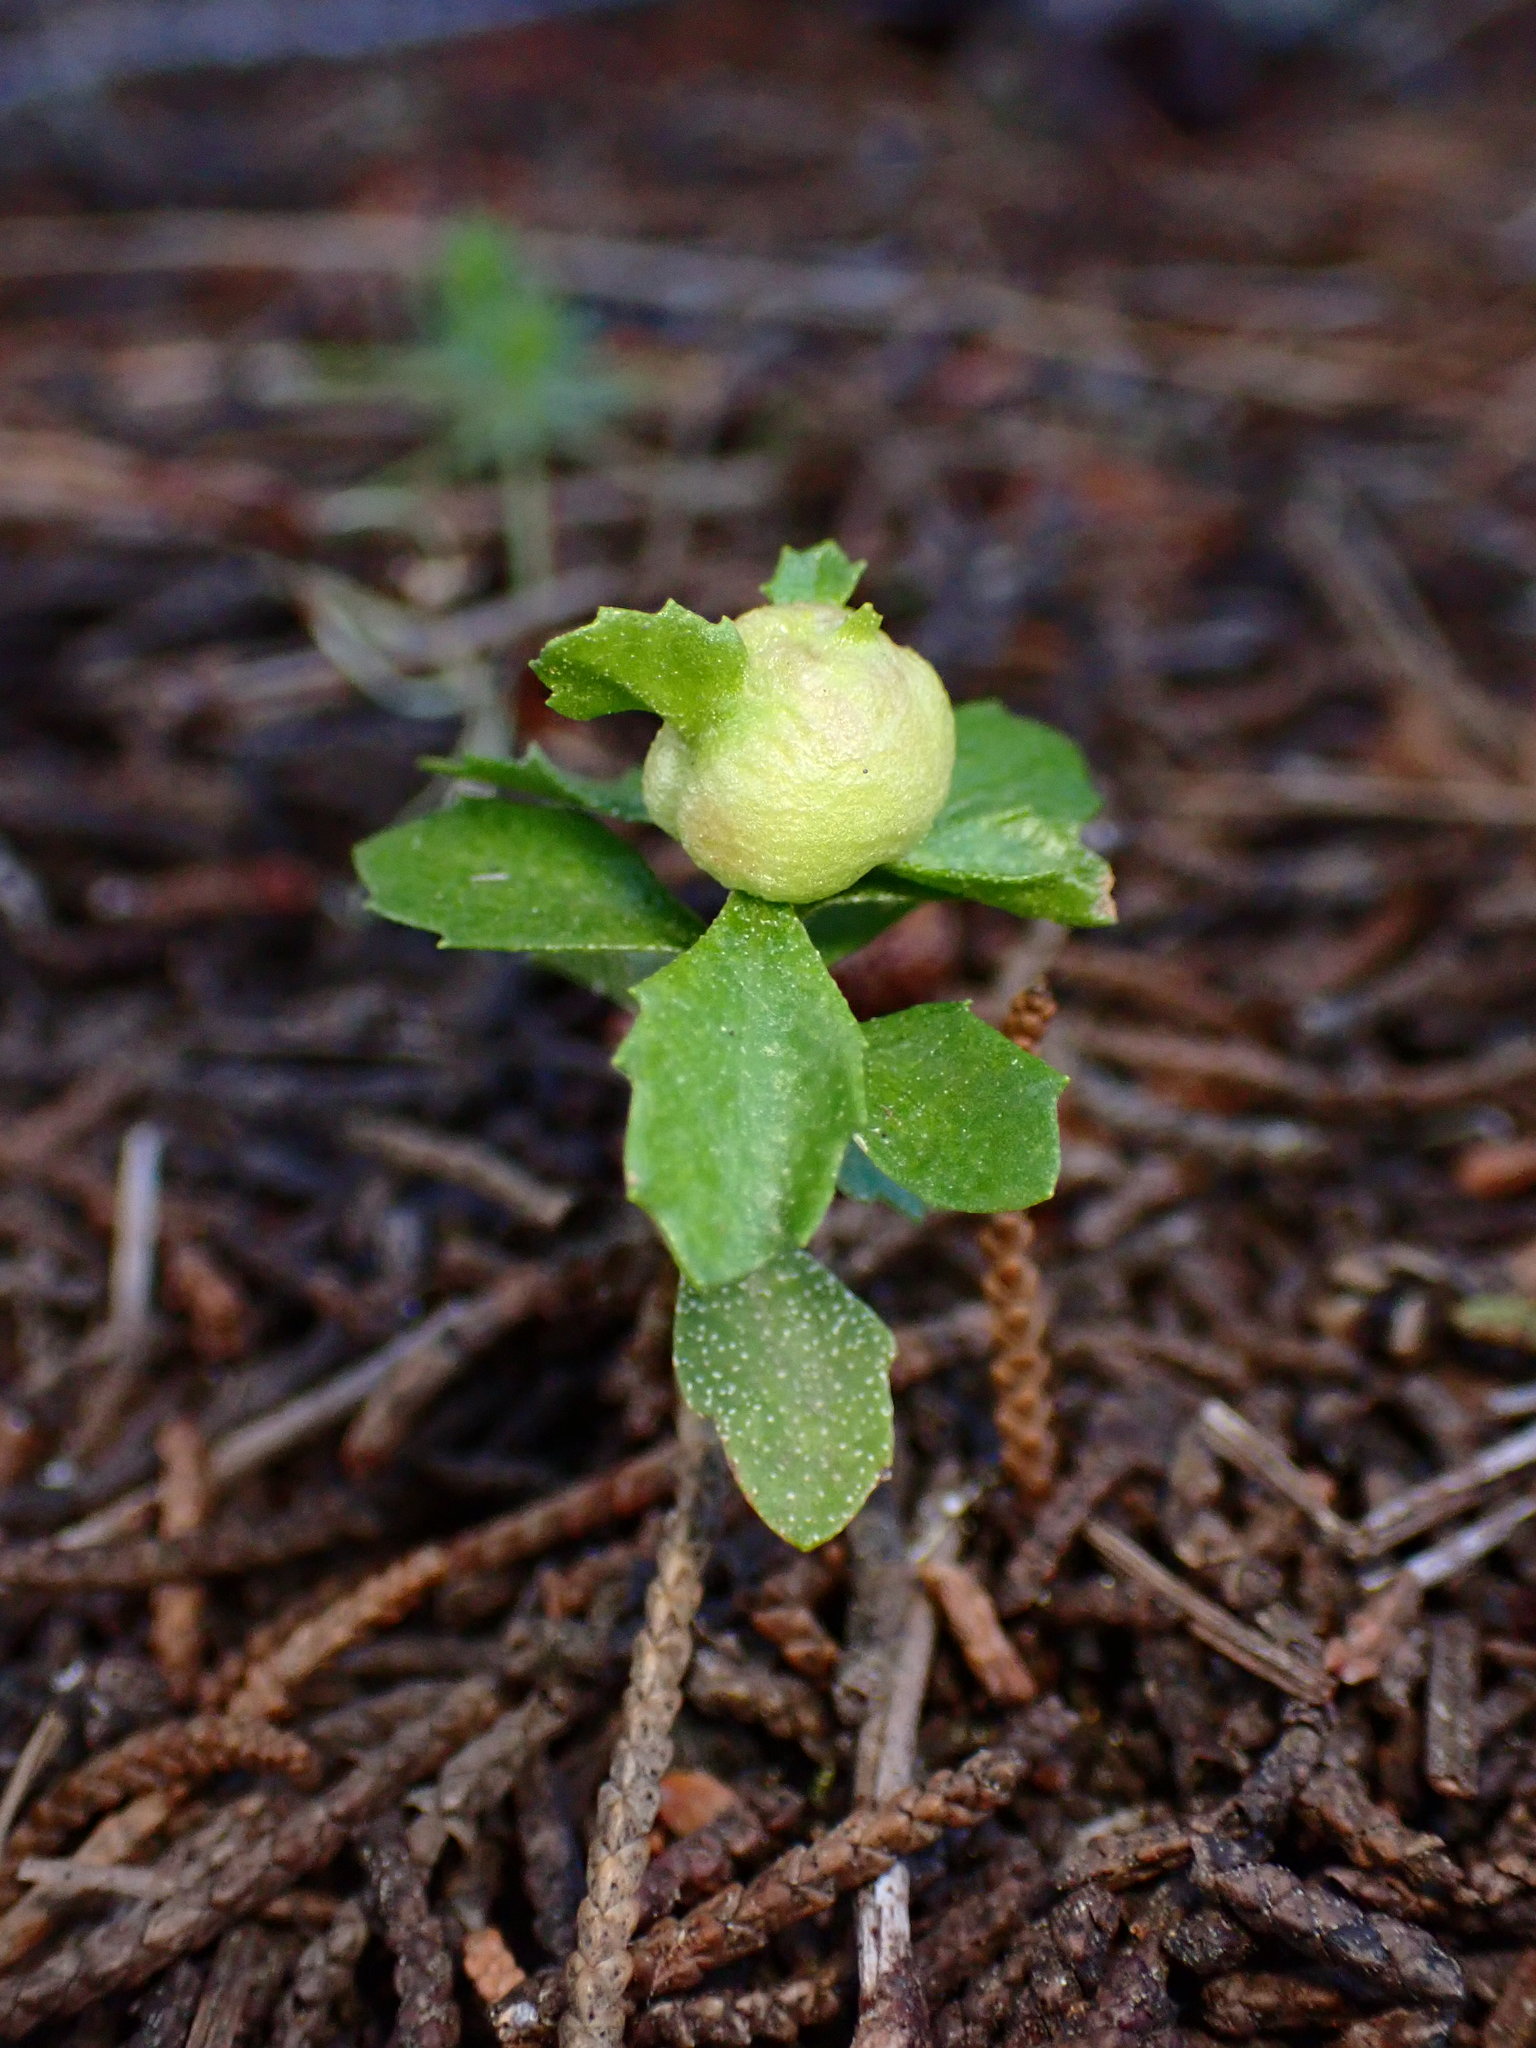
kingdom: Animalia
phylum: Arthropoda
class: Insecta
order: Diptera
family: Cecidomyiidae
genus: Rhopalomyia
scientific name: Rhopalomyia californica
